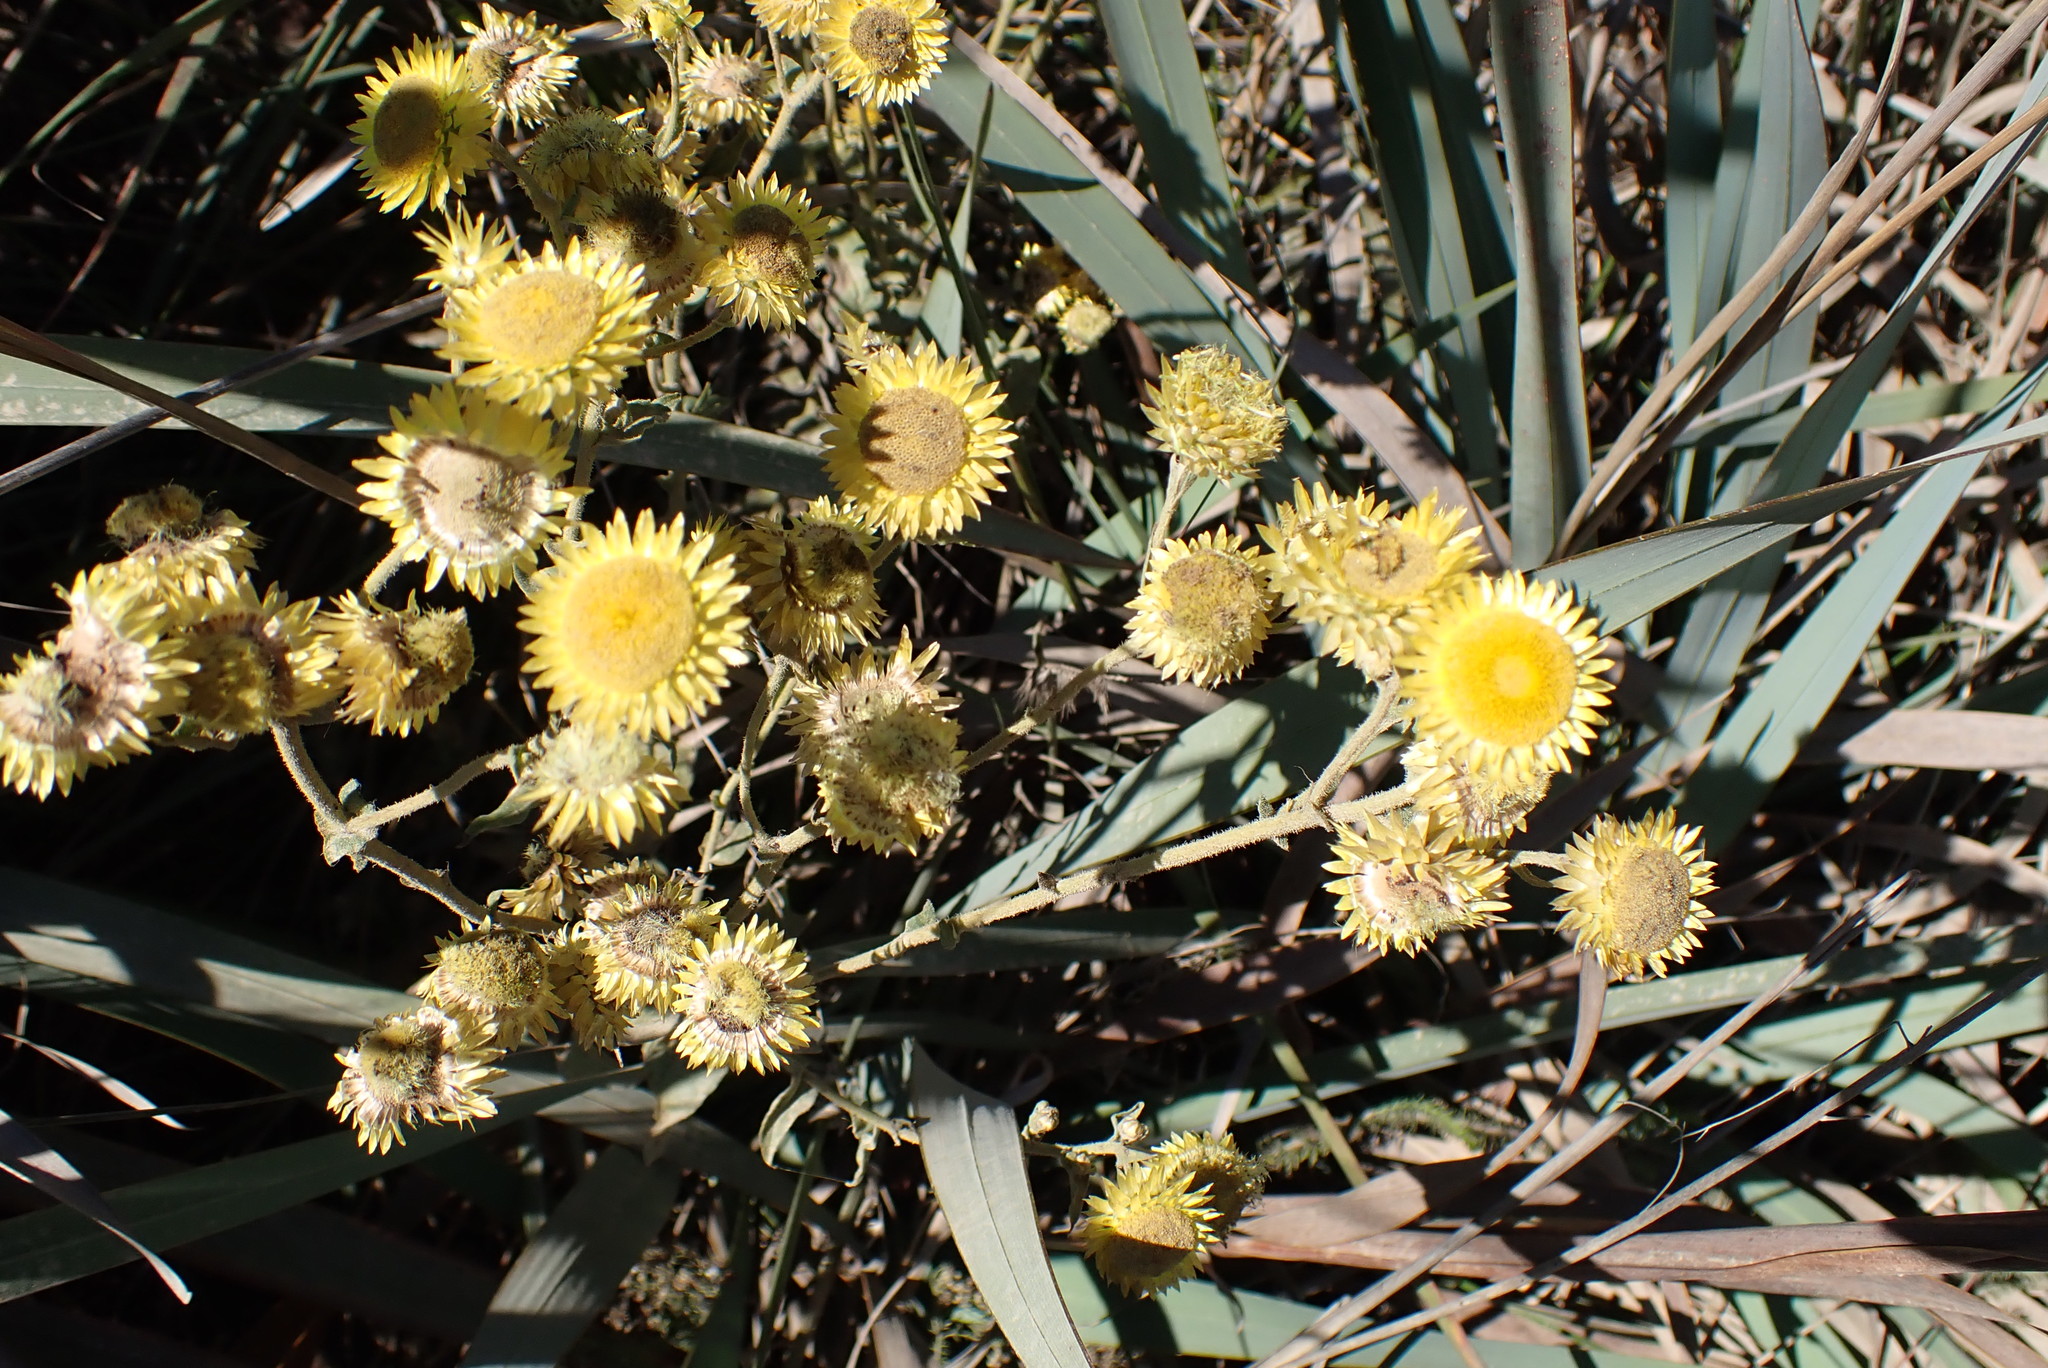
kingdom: Plantae
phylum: Tracheophyta
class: Magnoliopsida
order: Asterales
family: Asteraceae
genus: Helichrysum
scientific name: Helichrysum foetidum
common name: Stinking everlasting
